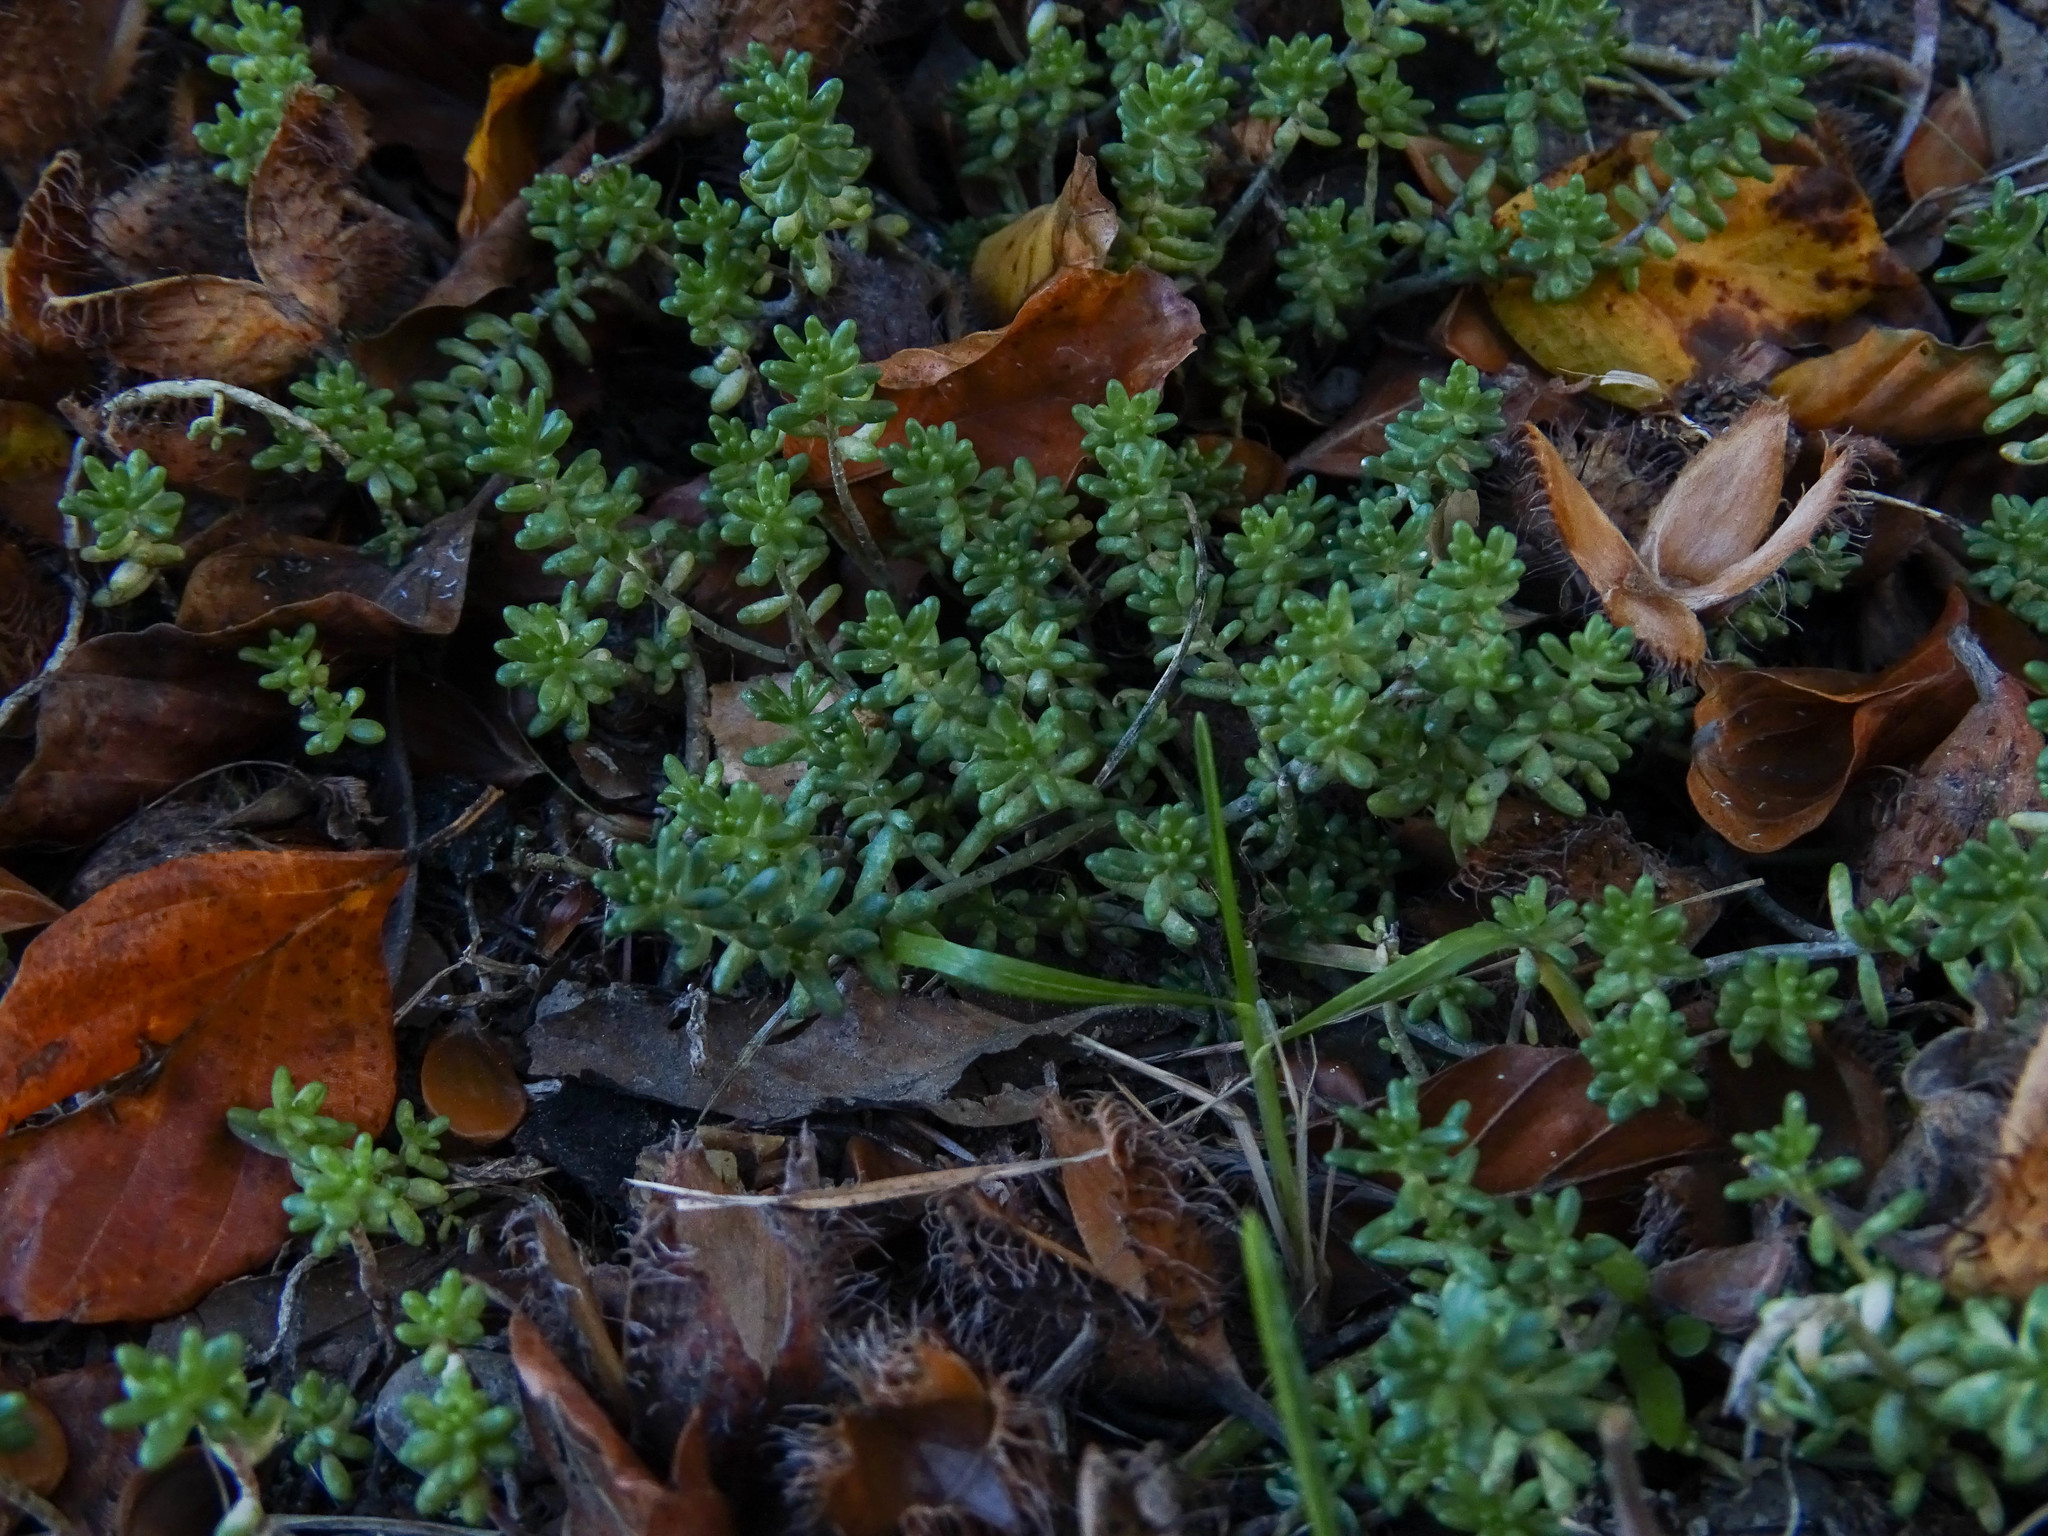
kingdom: Plantae
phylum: Tracheophyta
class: Magnoliopsida
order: Saxifragales
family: Crassulaceae
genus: Sedum
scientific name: Sedum album
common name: White stonecrop
